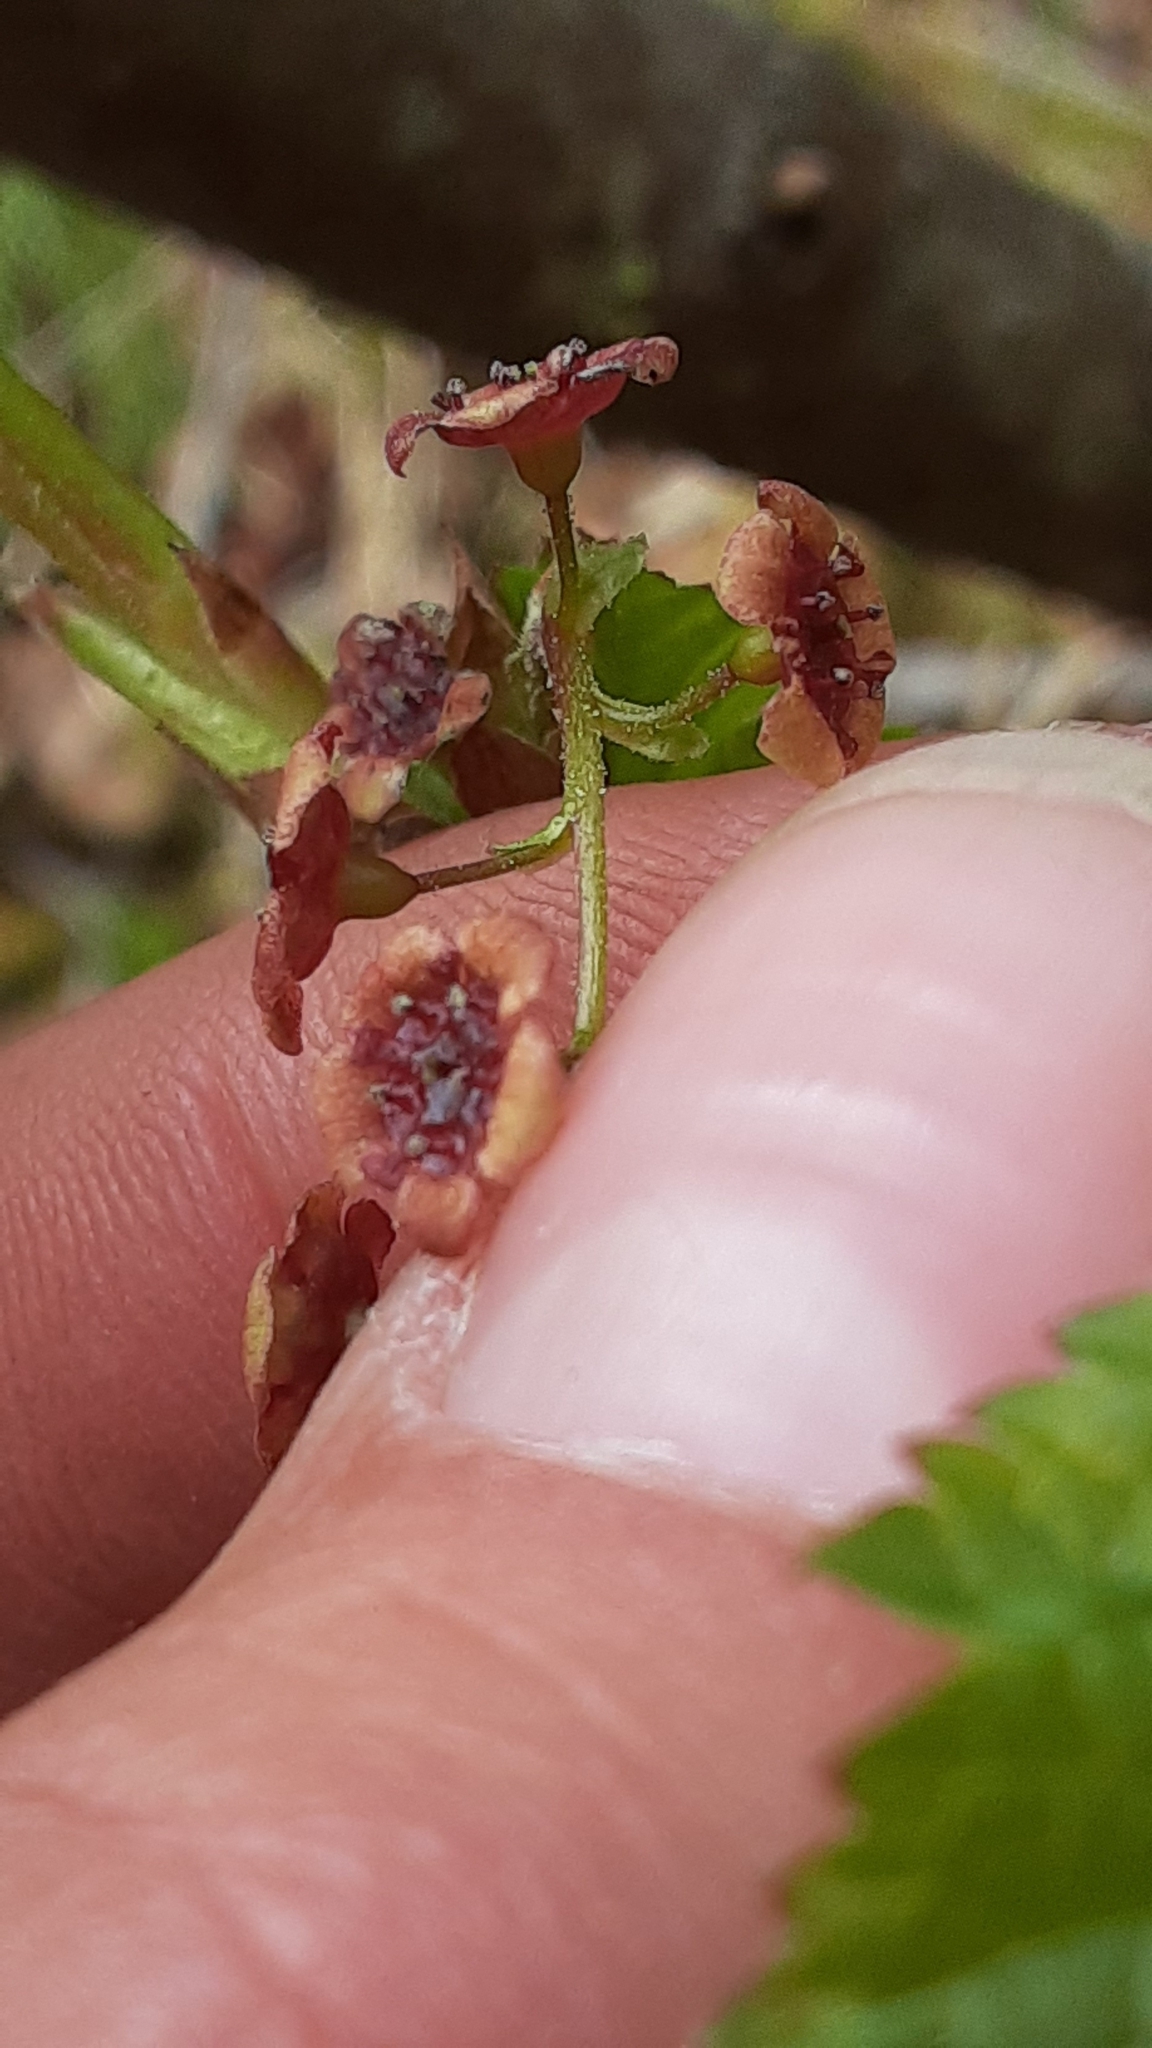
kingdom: Plantae
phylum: Tracheophyta
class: Magnoliopsida
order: Saxifragales
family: Grossulariaceae
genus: Ribes
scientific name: Ribes triste
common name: Swamp red currant
